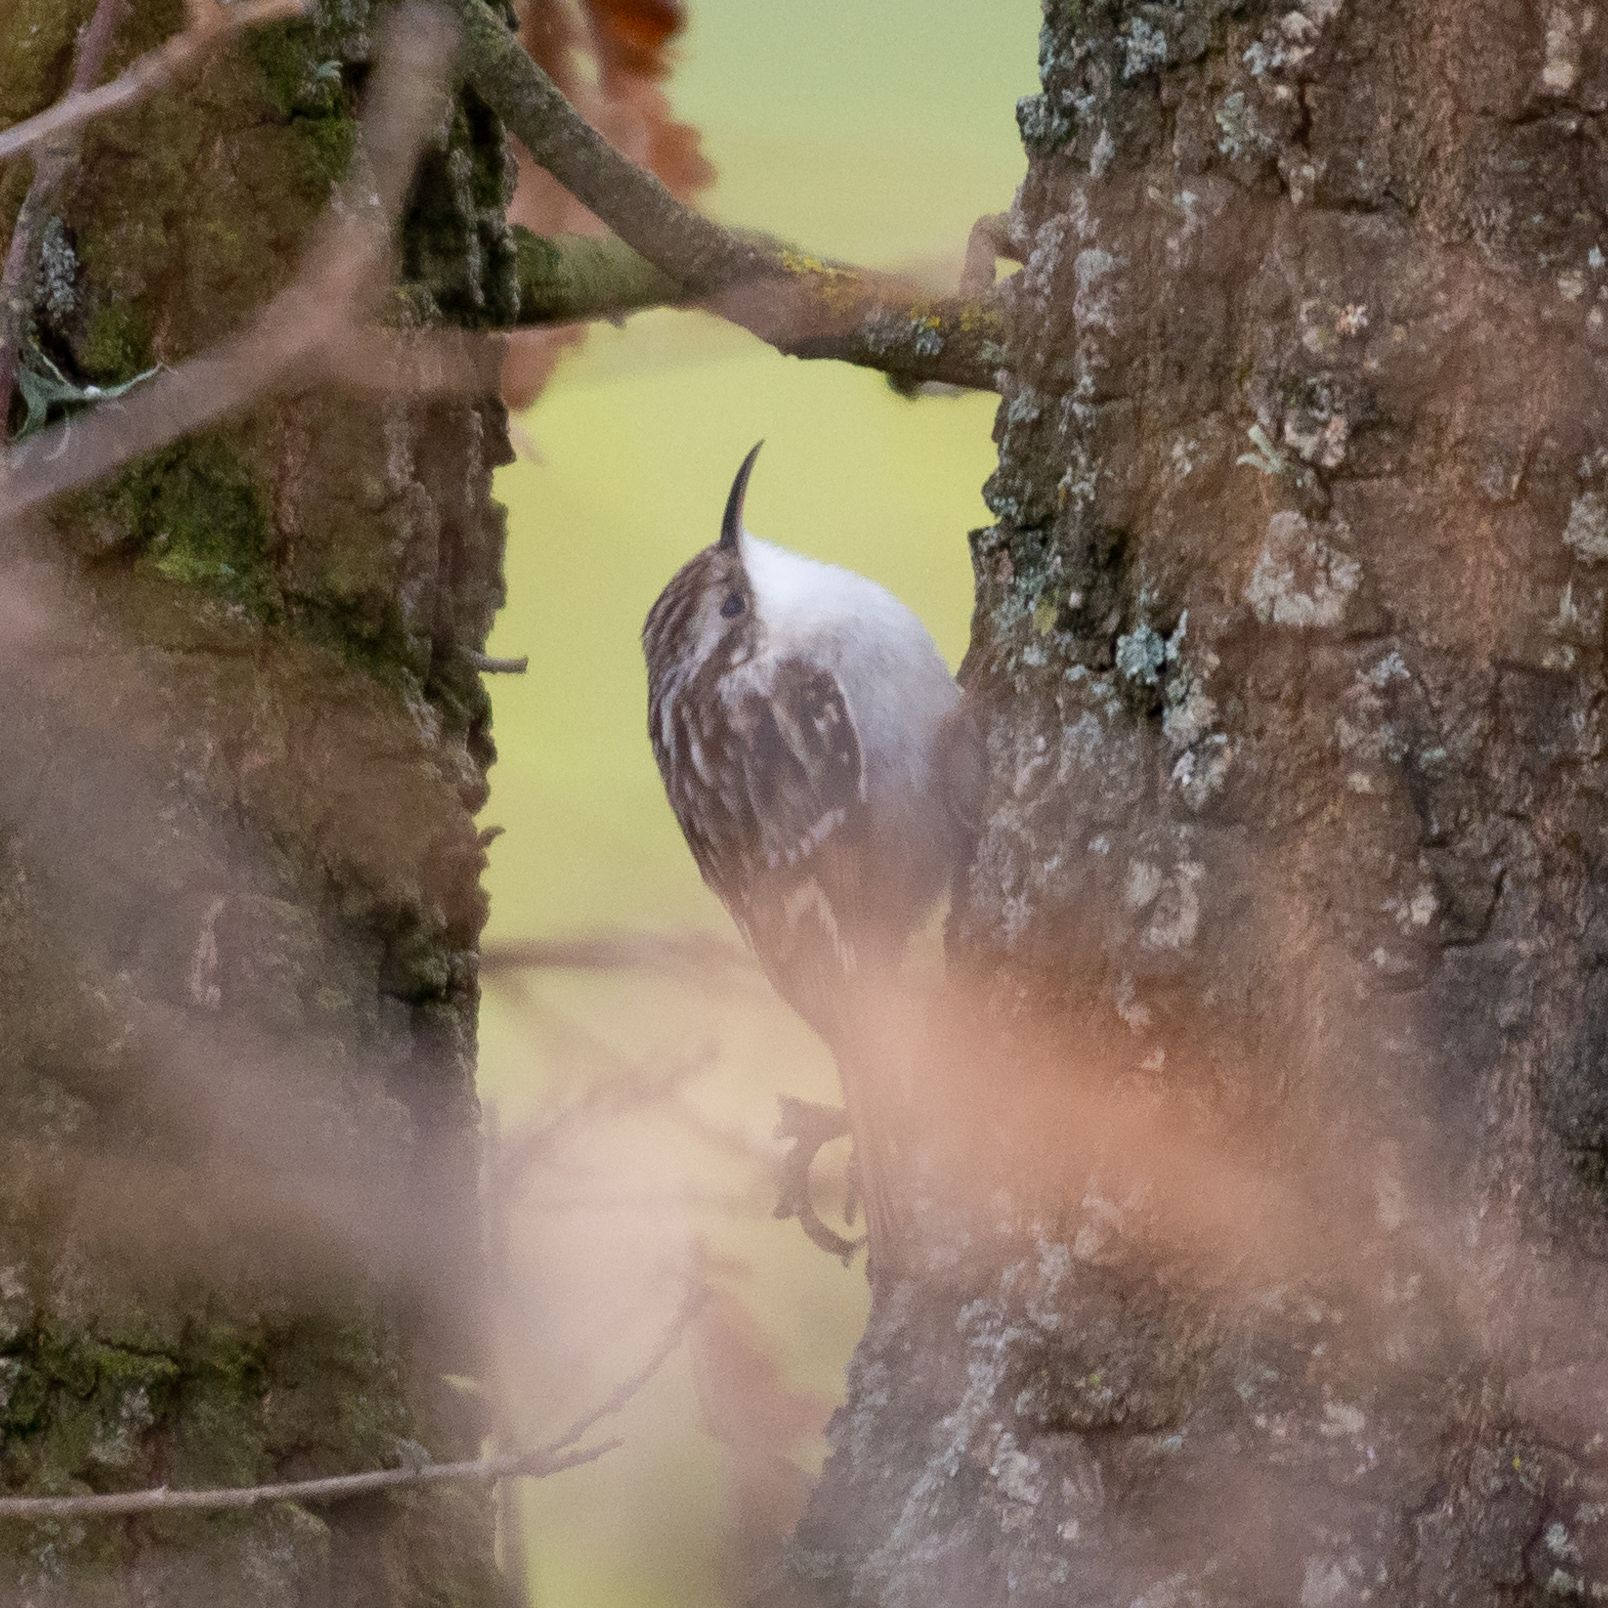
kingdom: Animalia
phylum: Chordata
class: Aves
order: Passeriformes
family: Certhiidae
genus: Certhia
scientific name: Certhia brachydactyla
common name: Short-toed treecreeper
